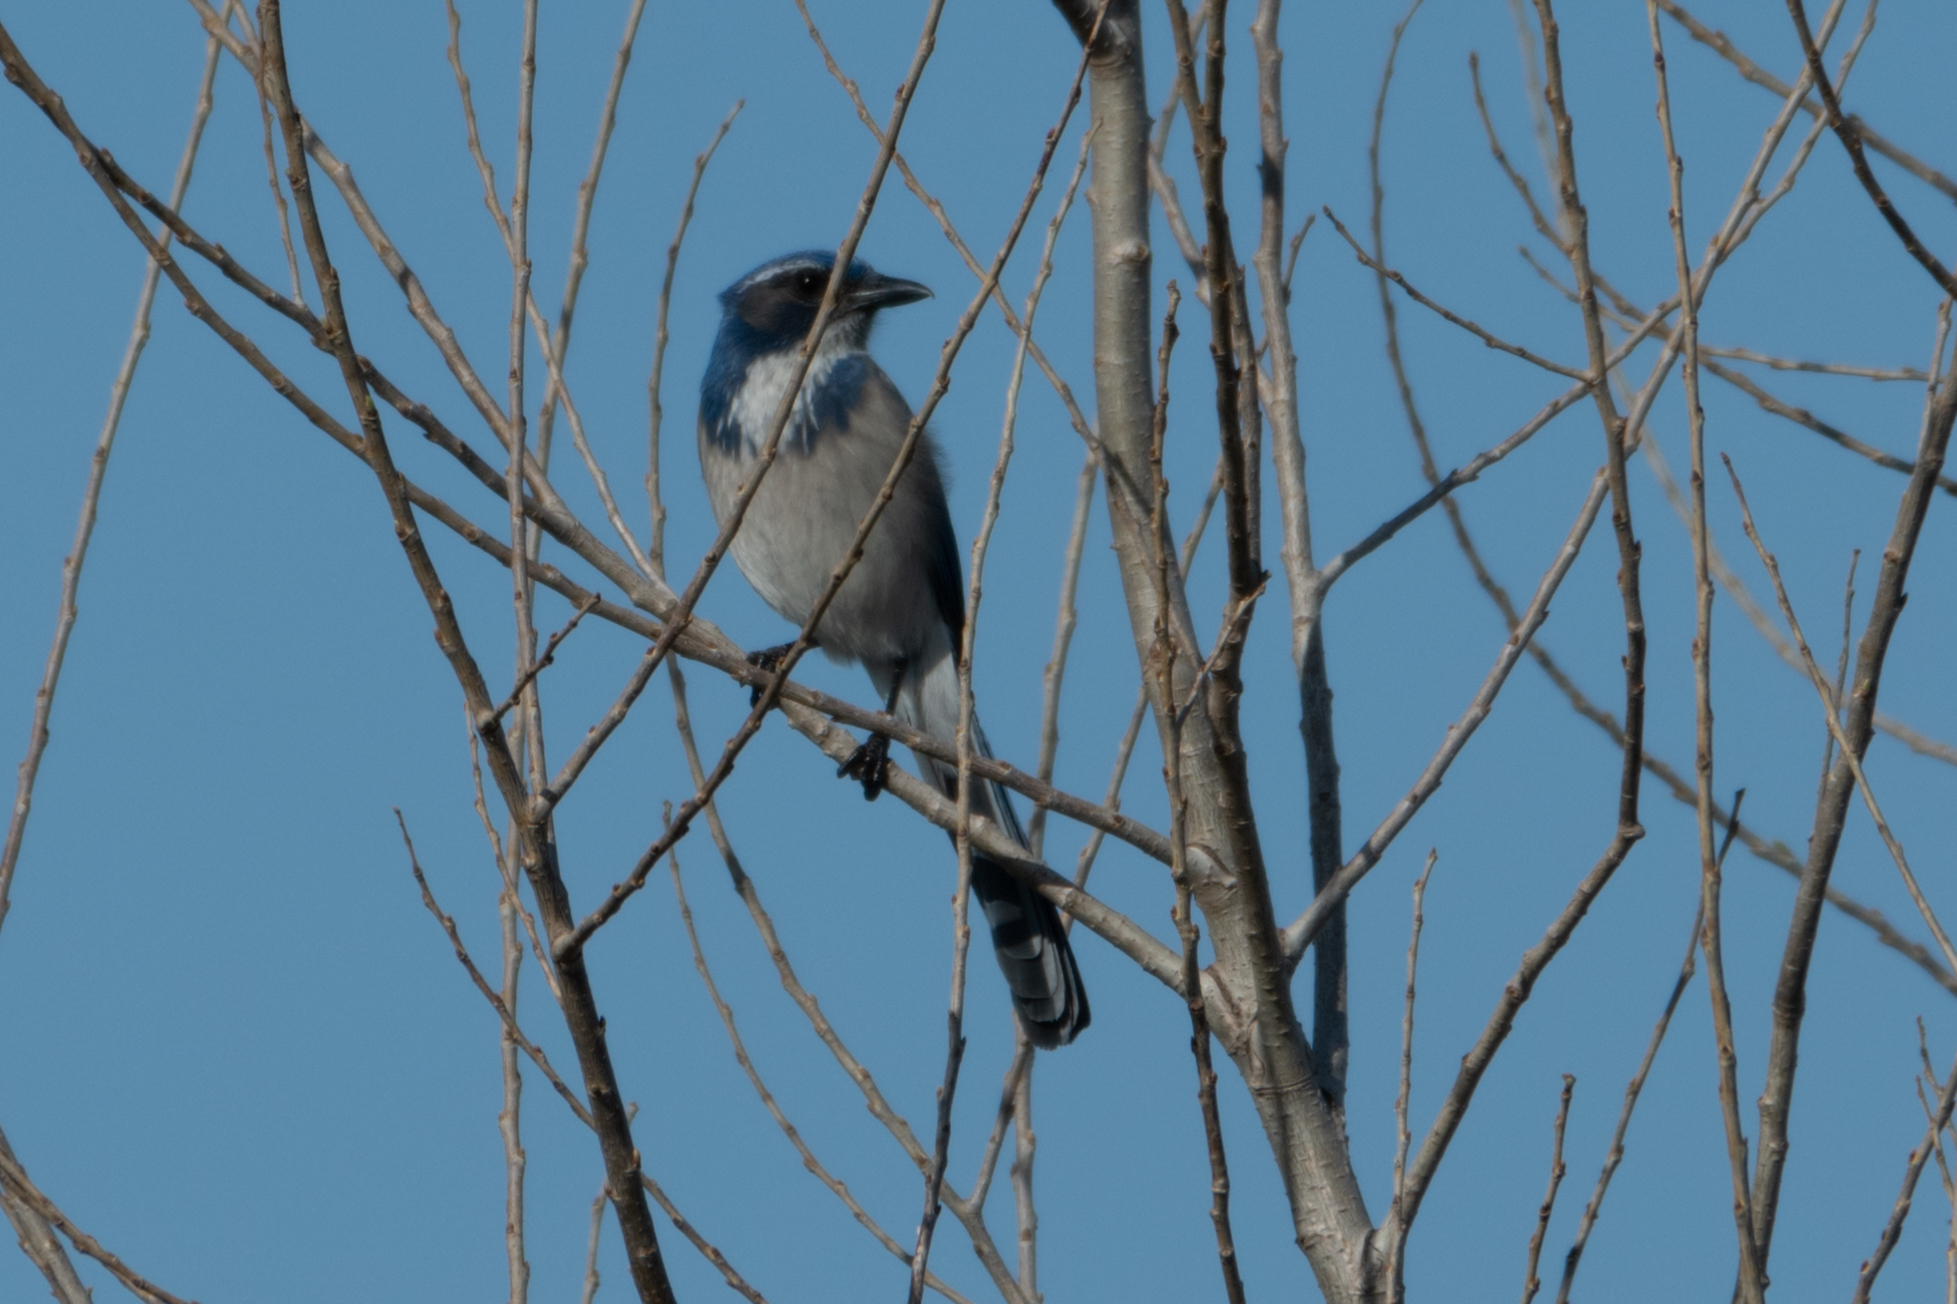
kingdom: Animalia
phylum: Chordata
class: Aves
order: Passeriformes
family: Corvidae
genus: Aphelocoma
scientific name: Aphelocoma californica
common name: California scrub-jay
